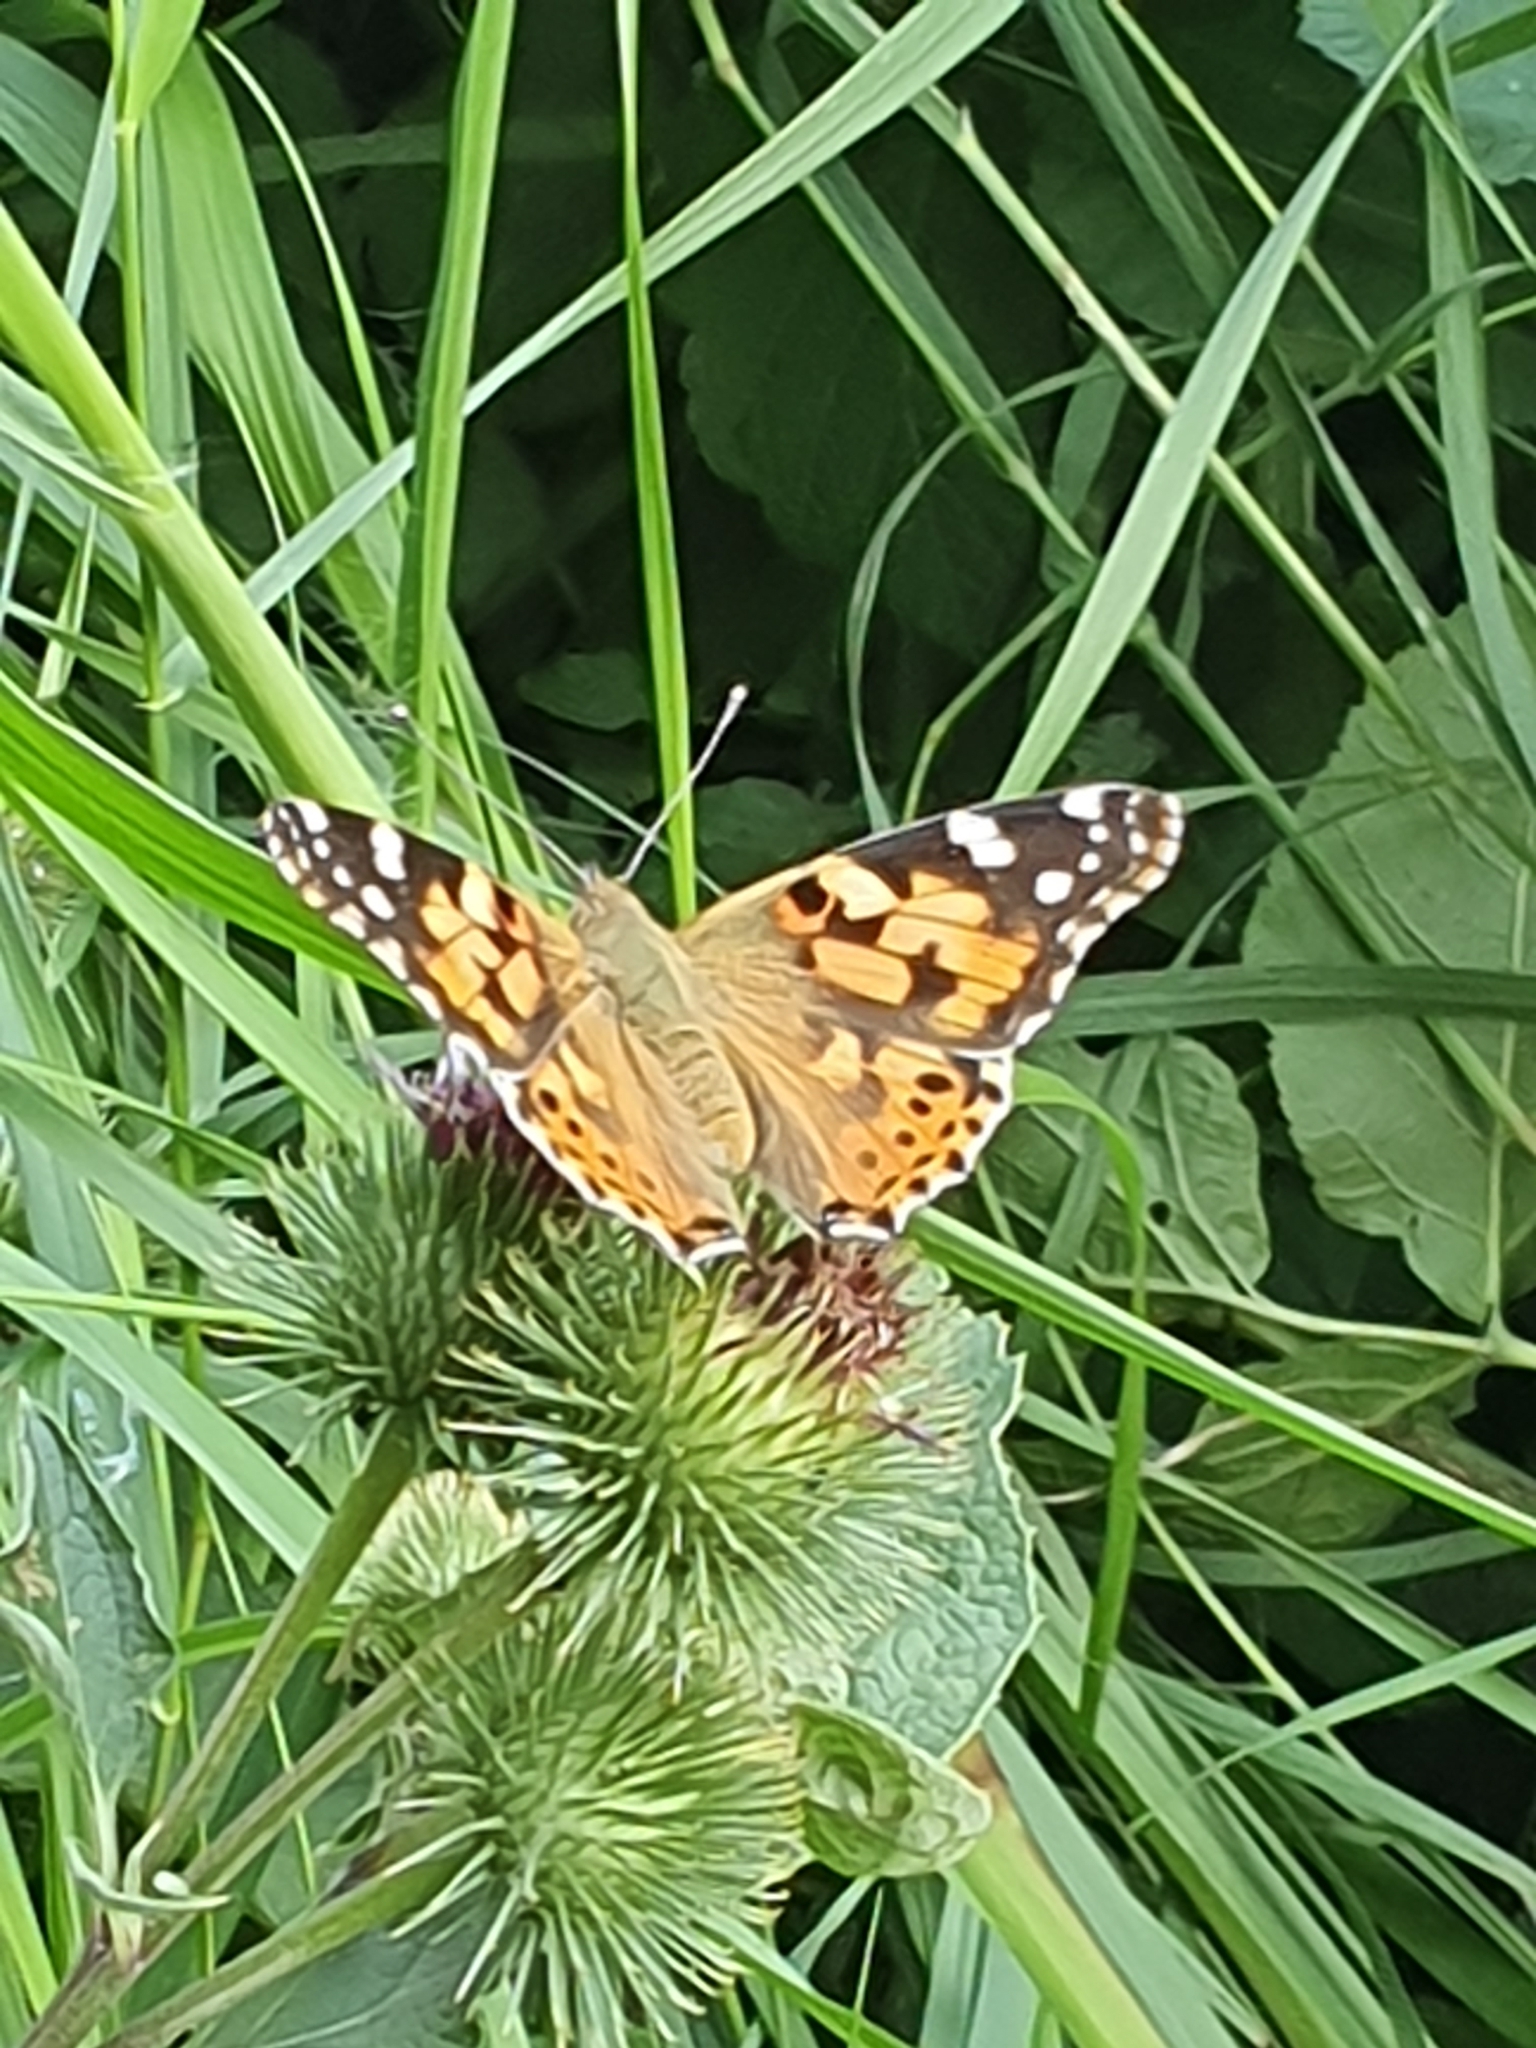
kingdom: Animalia
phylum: Arthropoda
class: Insecta
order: Lepidoptera
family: Nymphalidae
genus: Vanessa
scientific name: Vanessa cardui
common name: Painted lady
